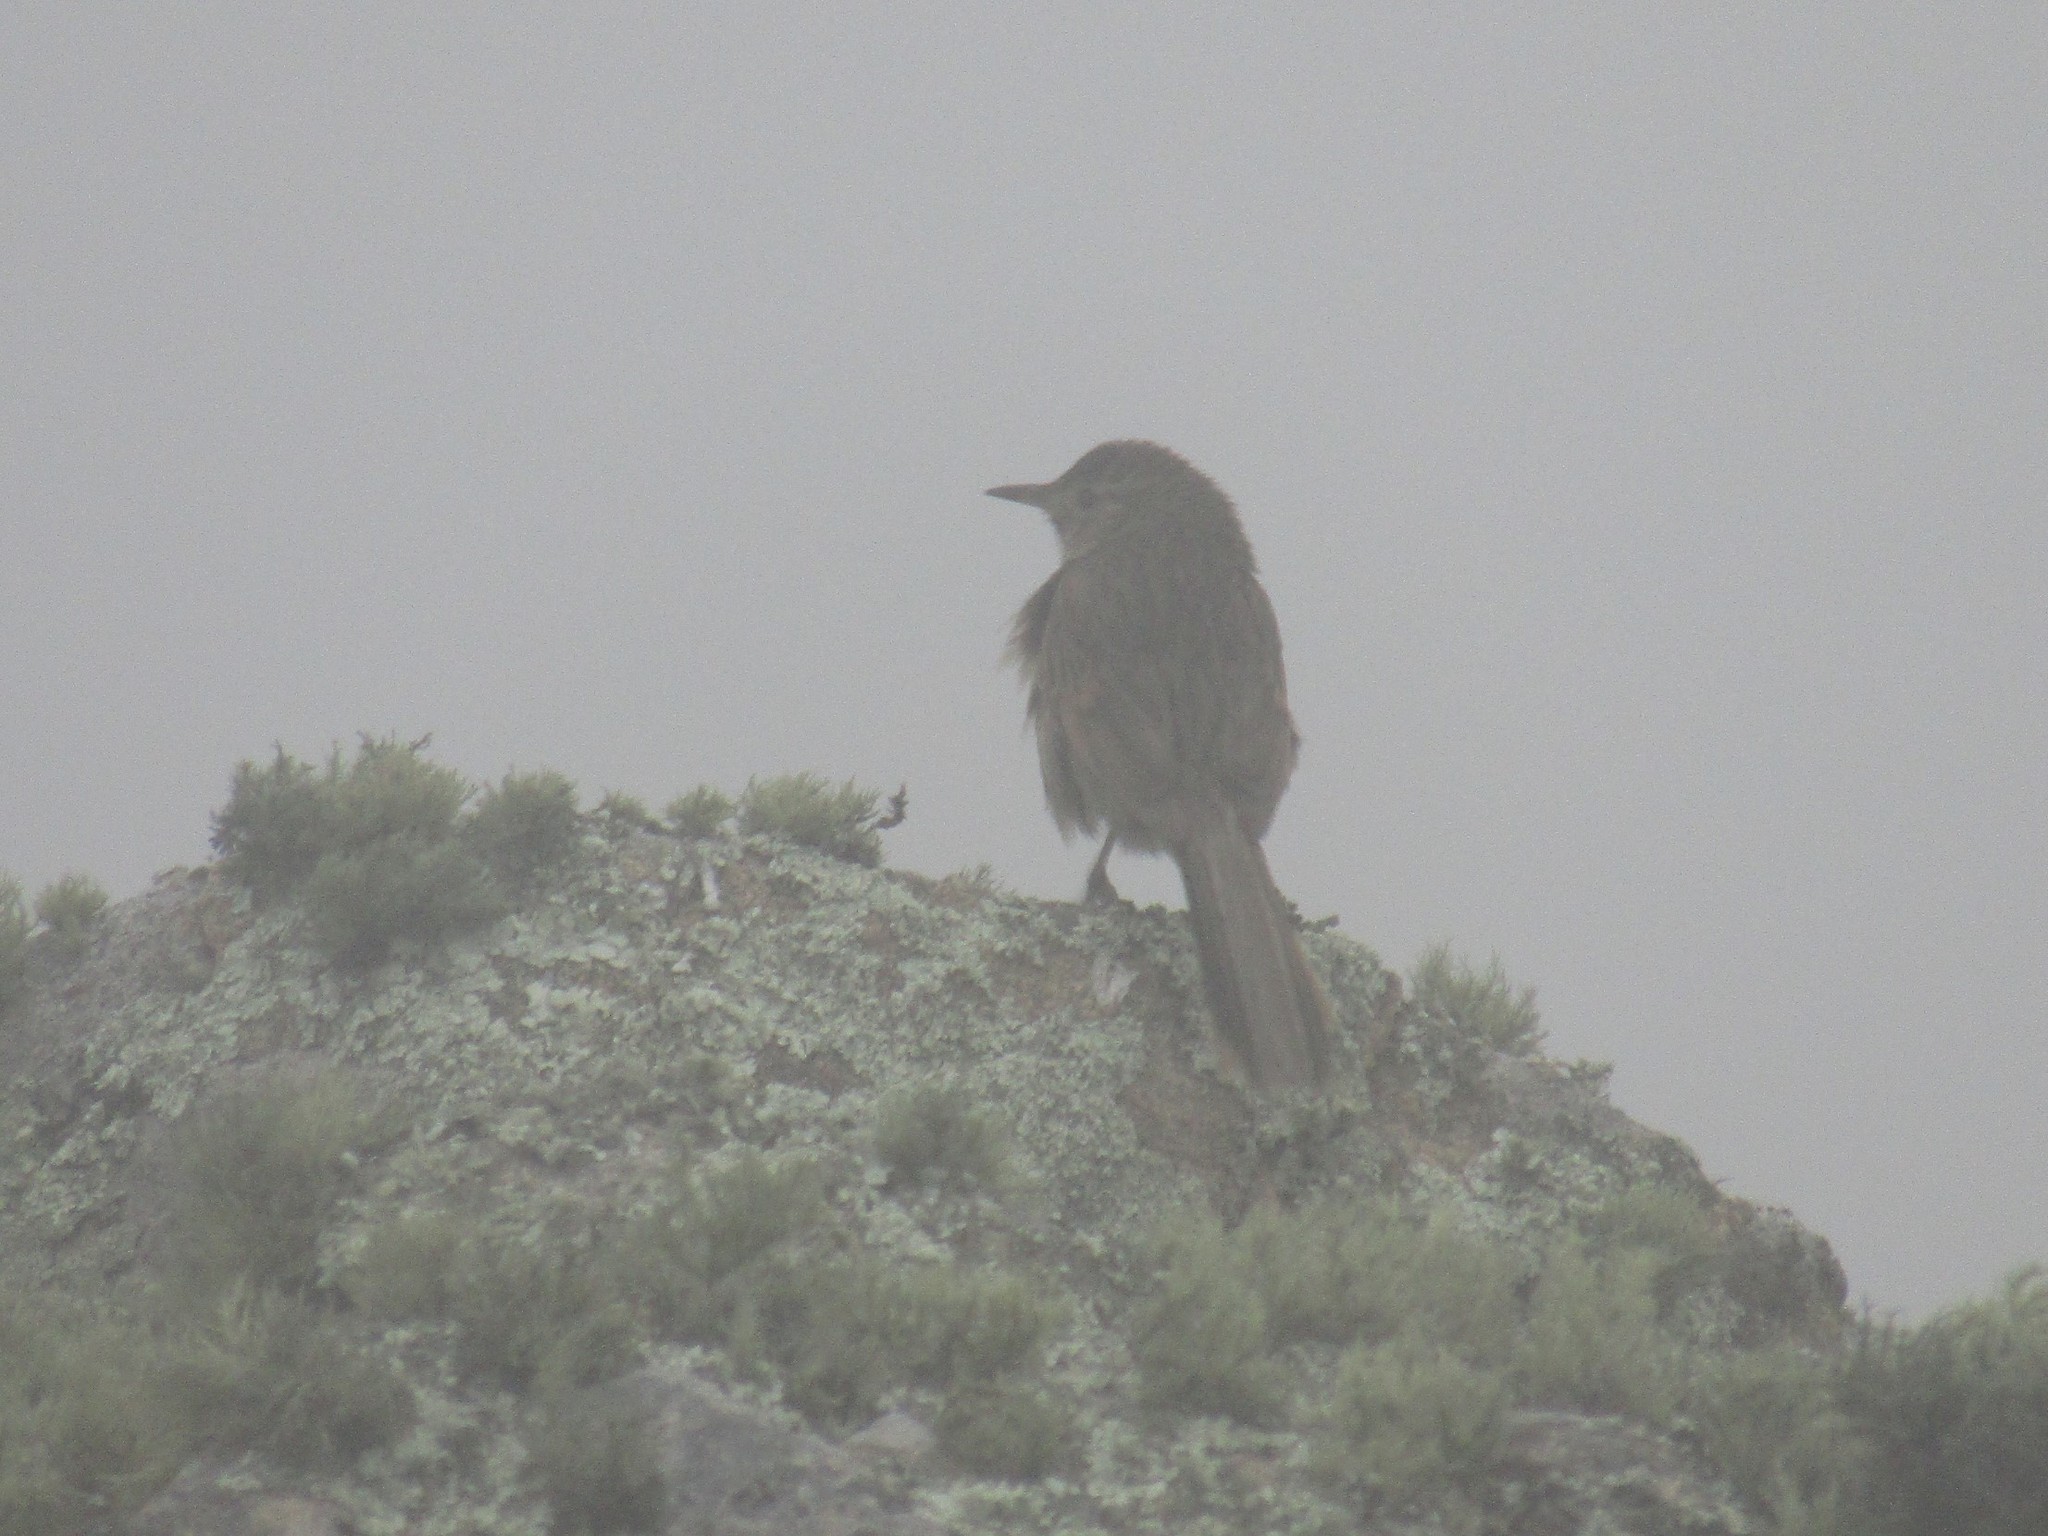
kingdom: Animalia
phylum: Chordata
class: Aves
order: Passeriformes
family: Furnariidae
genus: Asthenes
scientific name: Asthenes wyatti
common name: Streak-backed canastero
